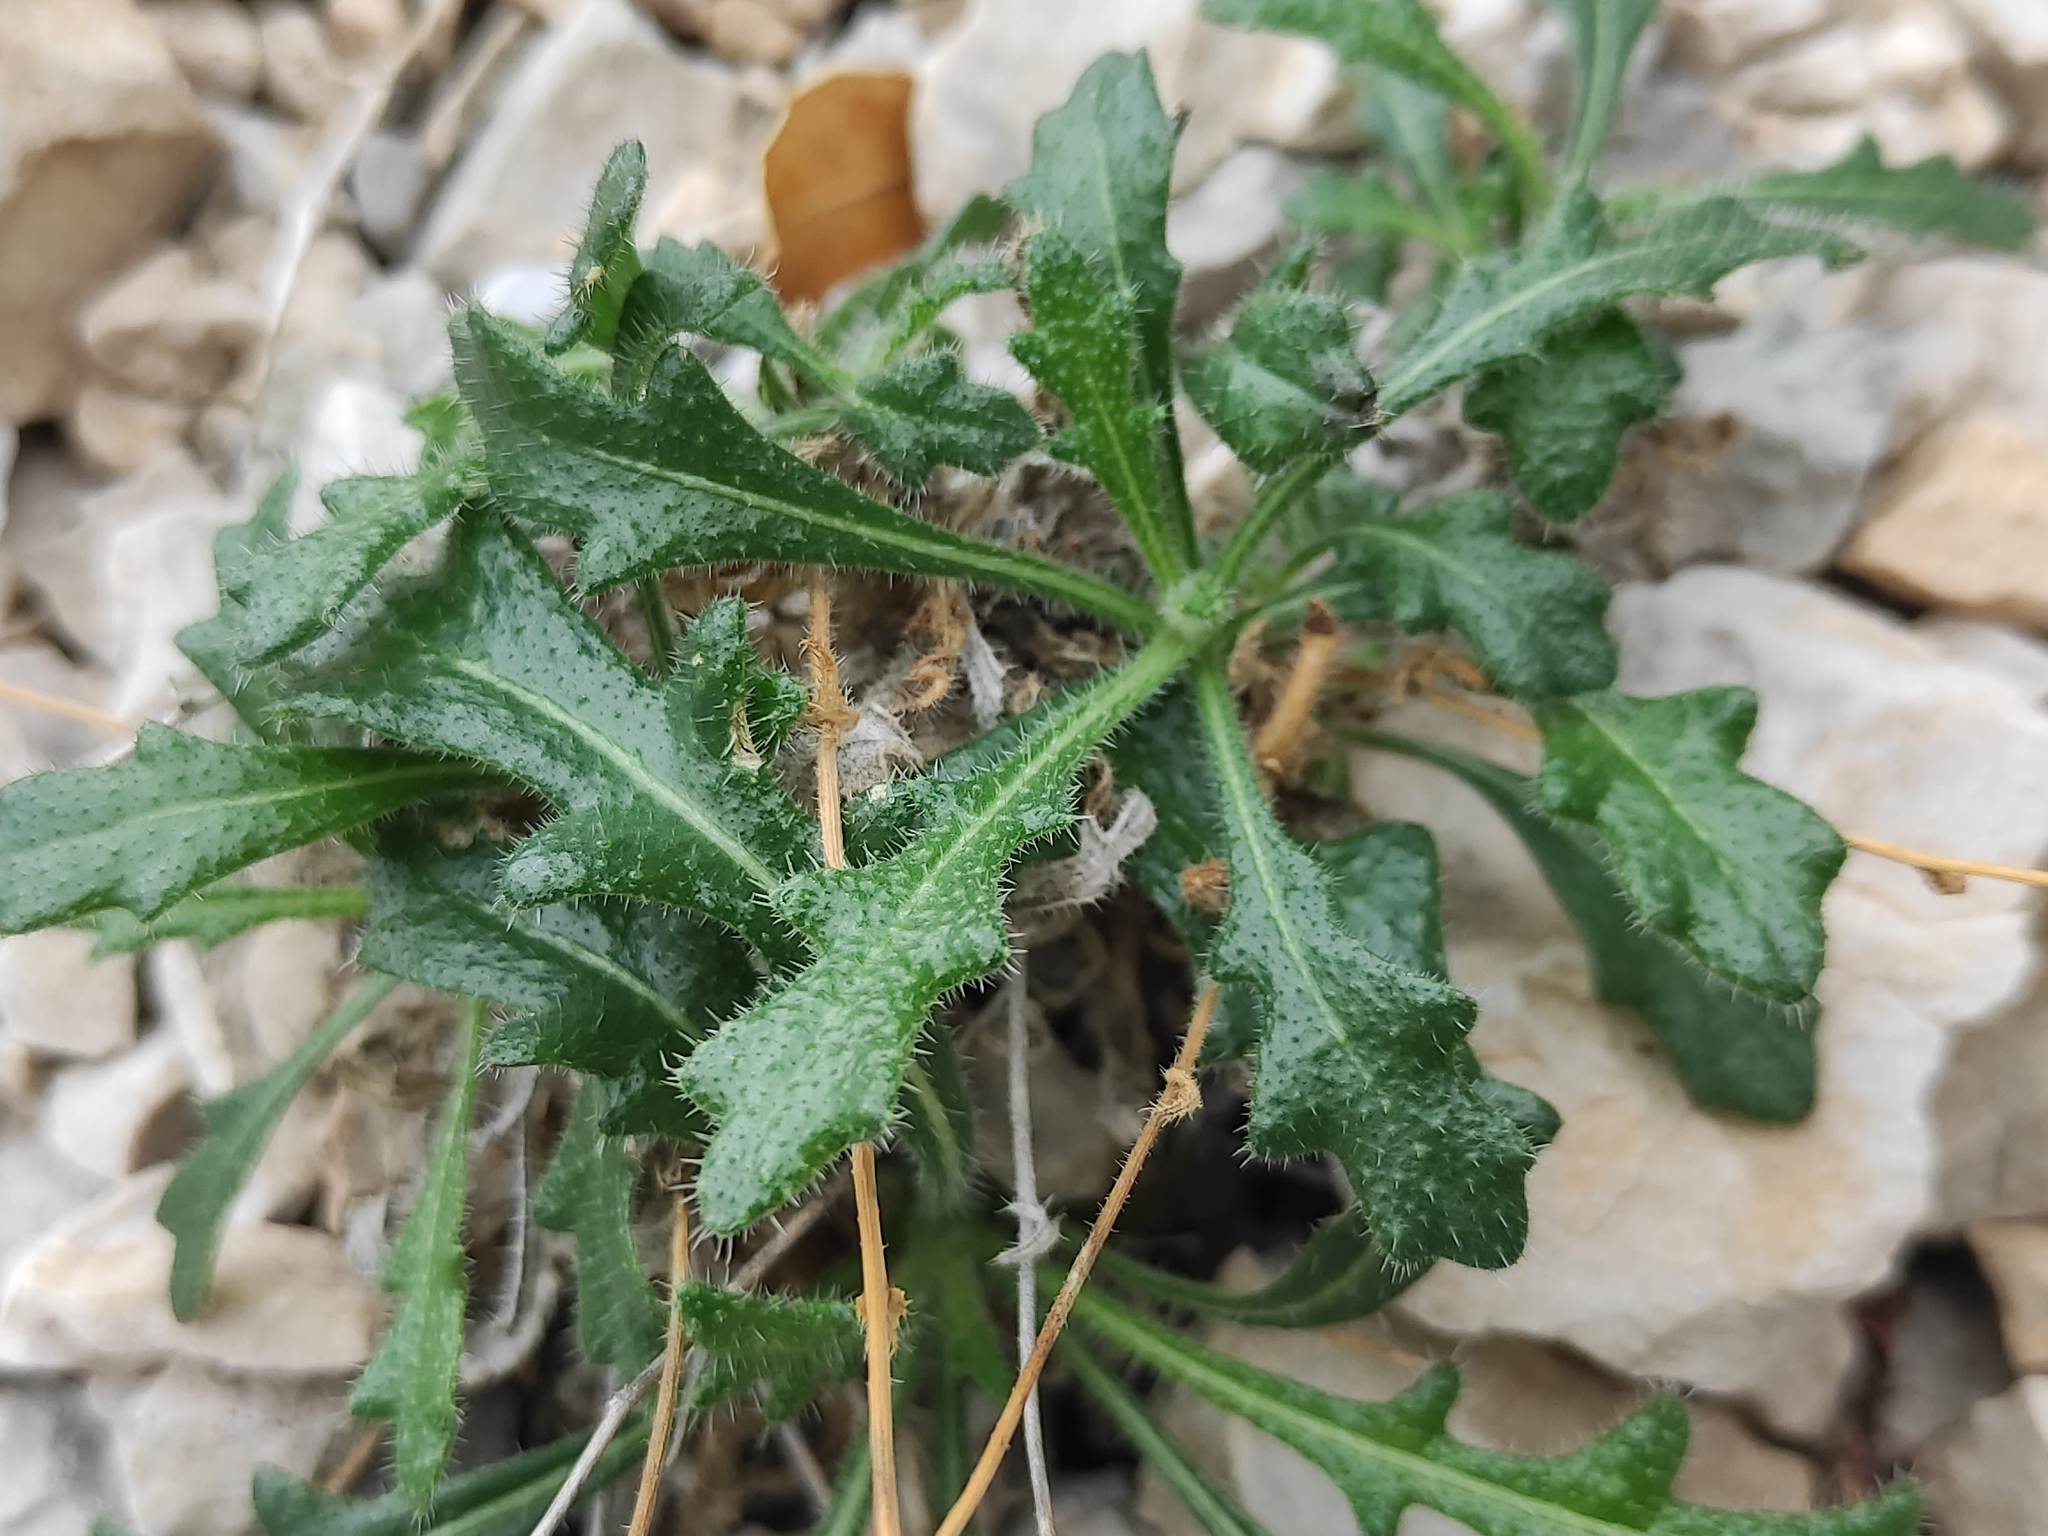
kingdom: Plantae
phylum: Tracheophyta
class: Magnoliopsida
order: Brassicales
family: Brassicaceae
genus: Biscutella
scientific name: Biscutella coronopifolia
